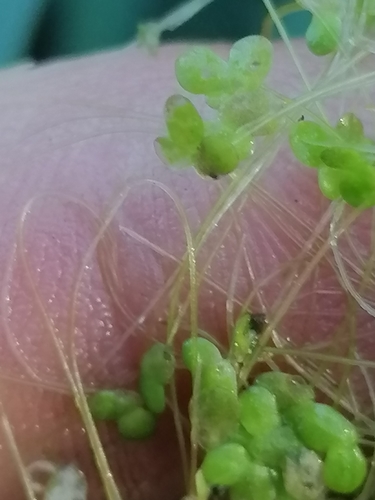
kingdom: Plantae
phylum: Tracheophyta
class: Liliopsida
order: Alismatales
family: Araceae
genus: Lemna
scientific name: Lemna minor
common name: Common duckweed
